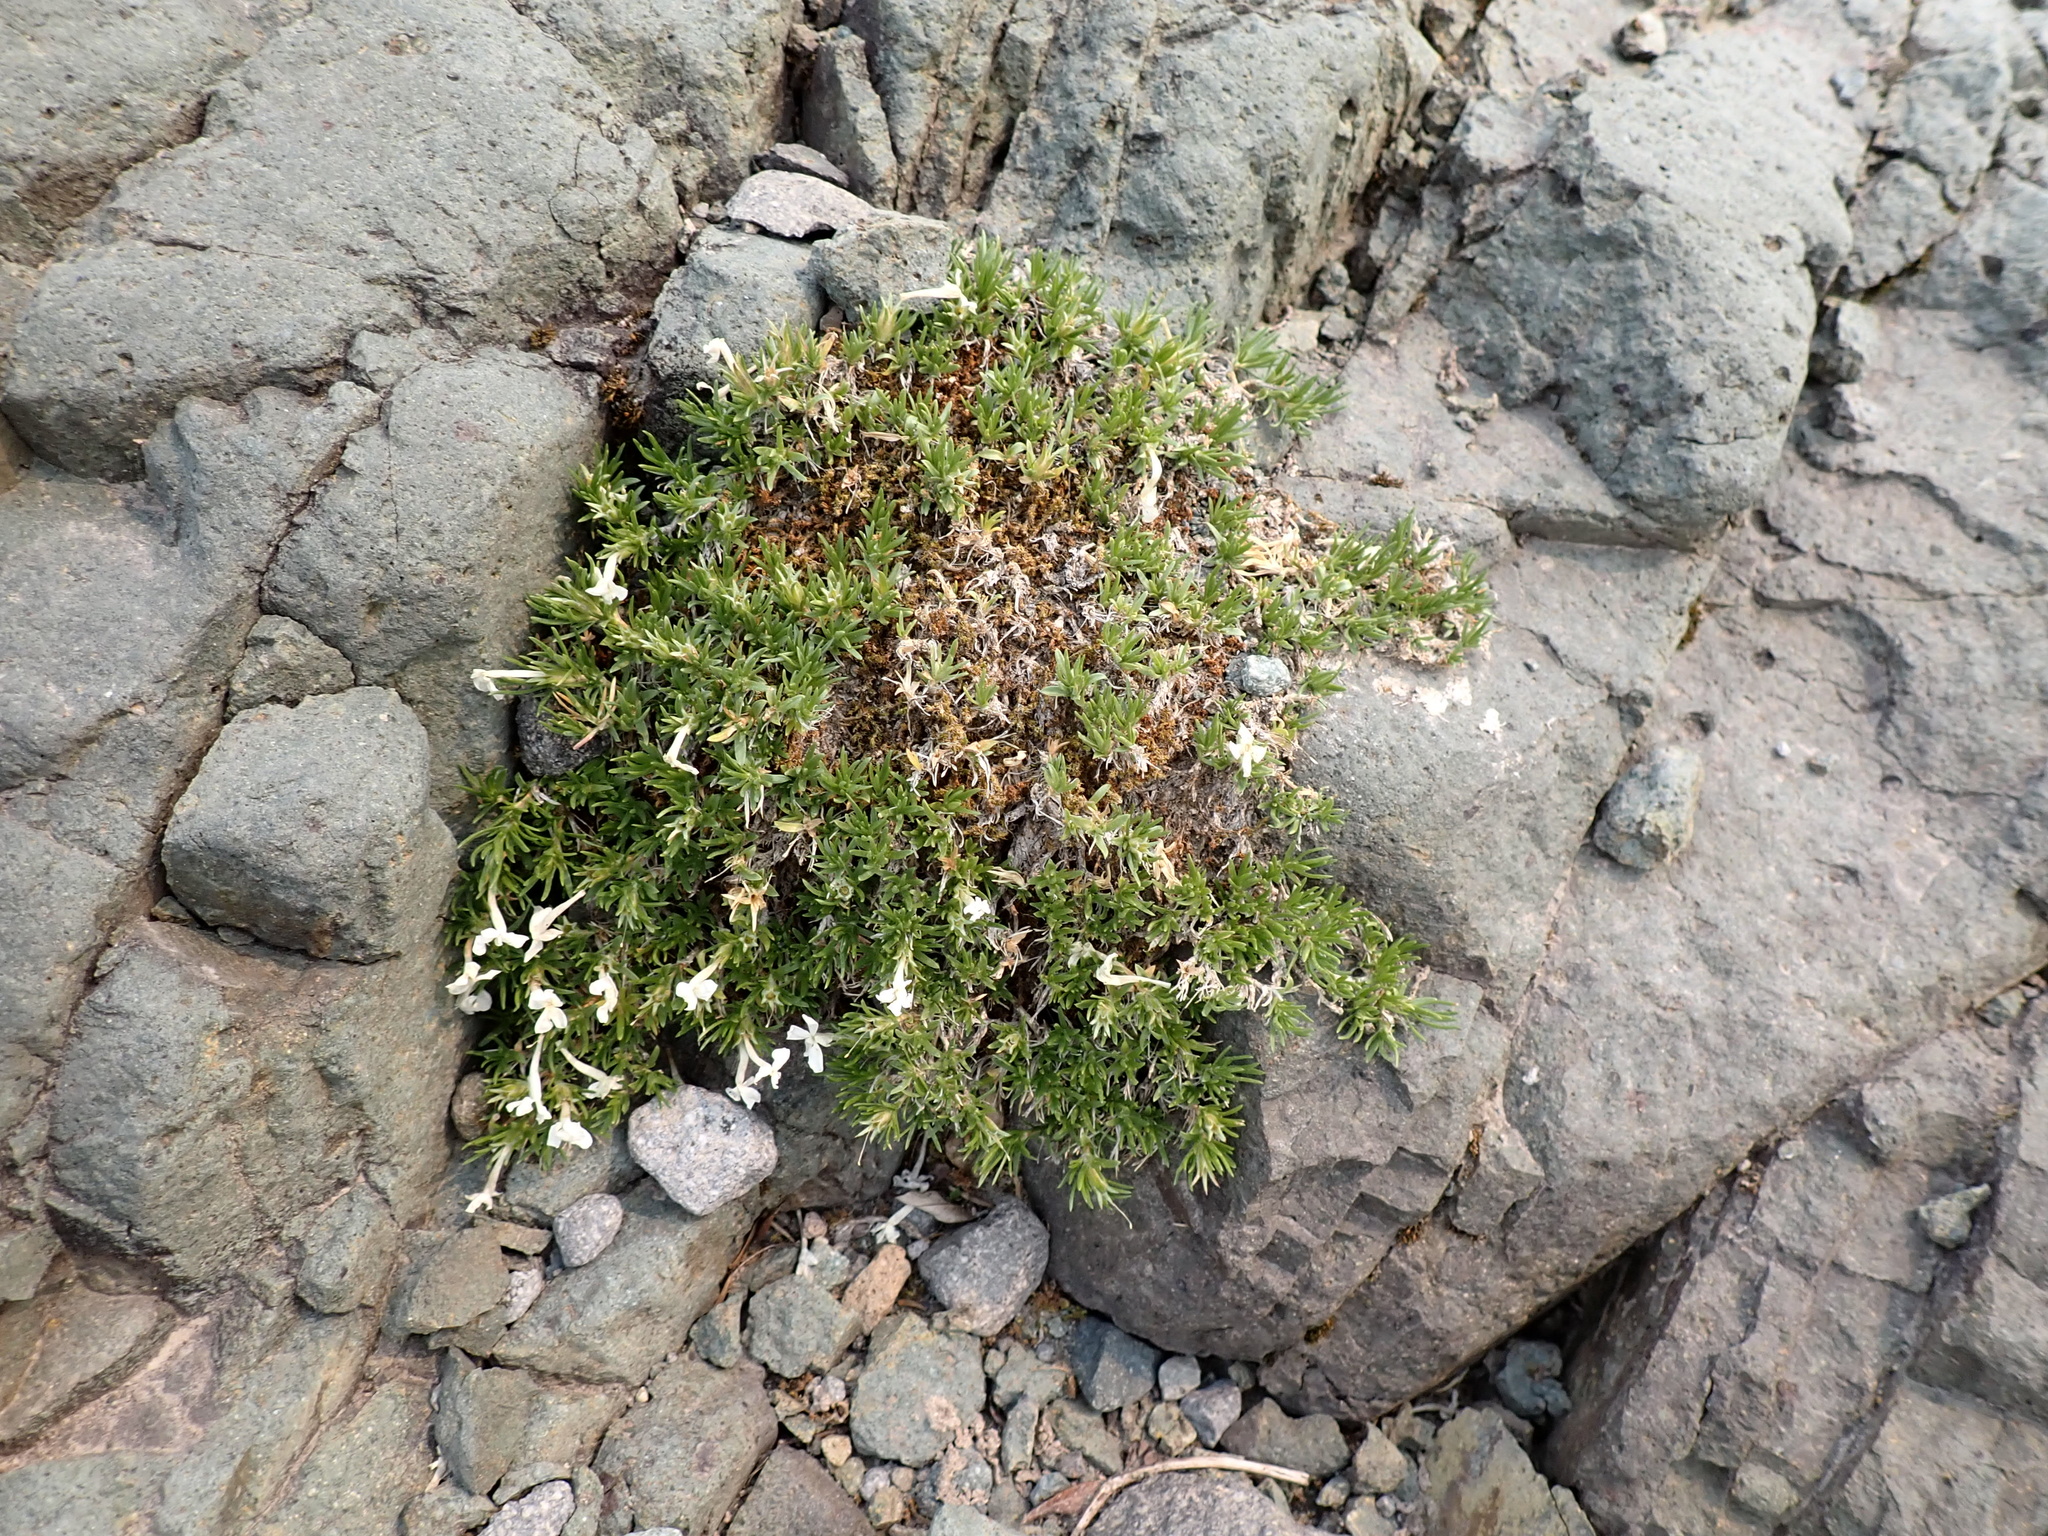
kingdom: Plantae
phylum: Tracheophyta
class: Magnoliopsida
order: Ericales
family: Polemoniaceae
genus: Phlox
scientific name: Phlox diffusa
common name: Mat phlox
